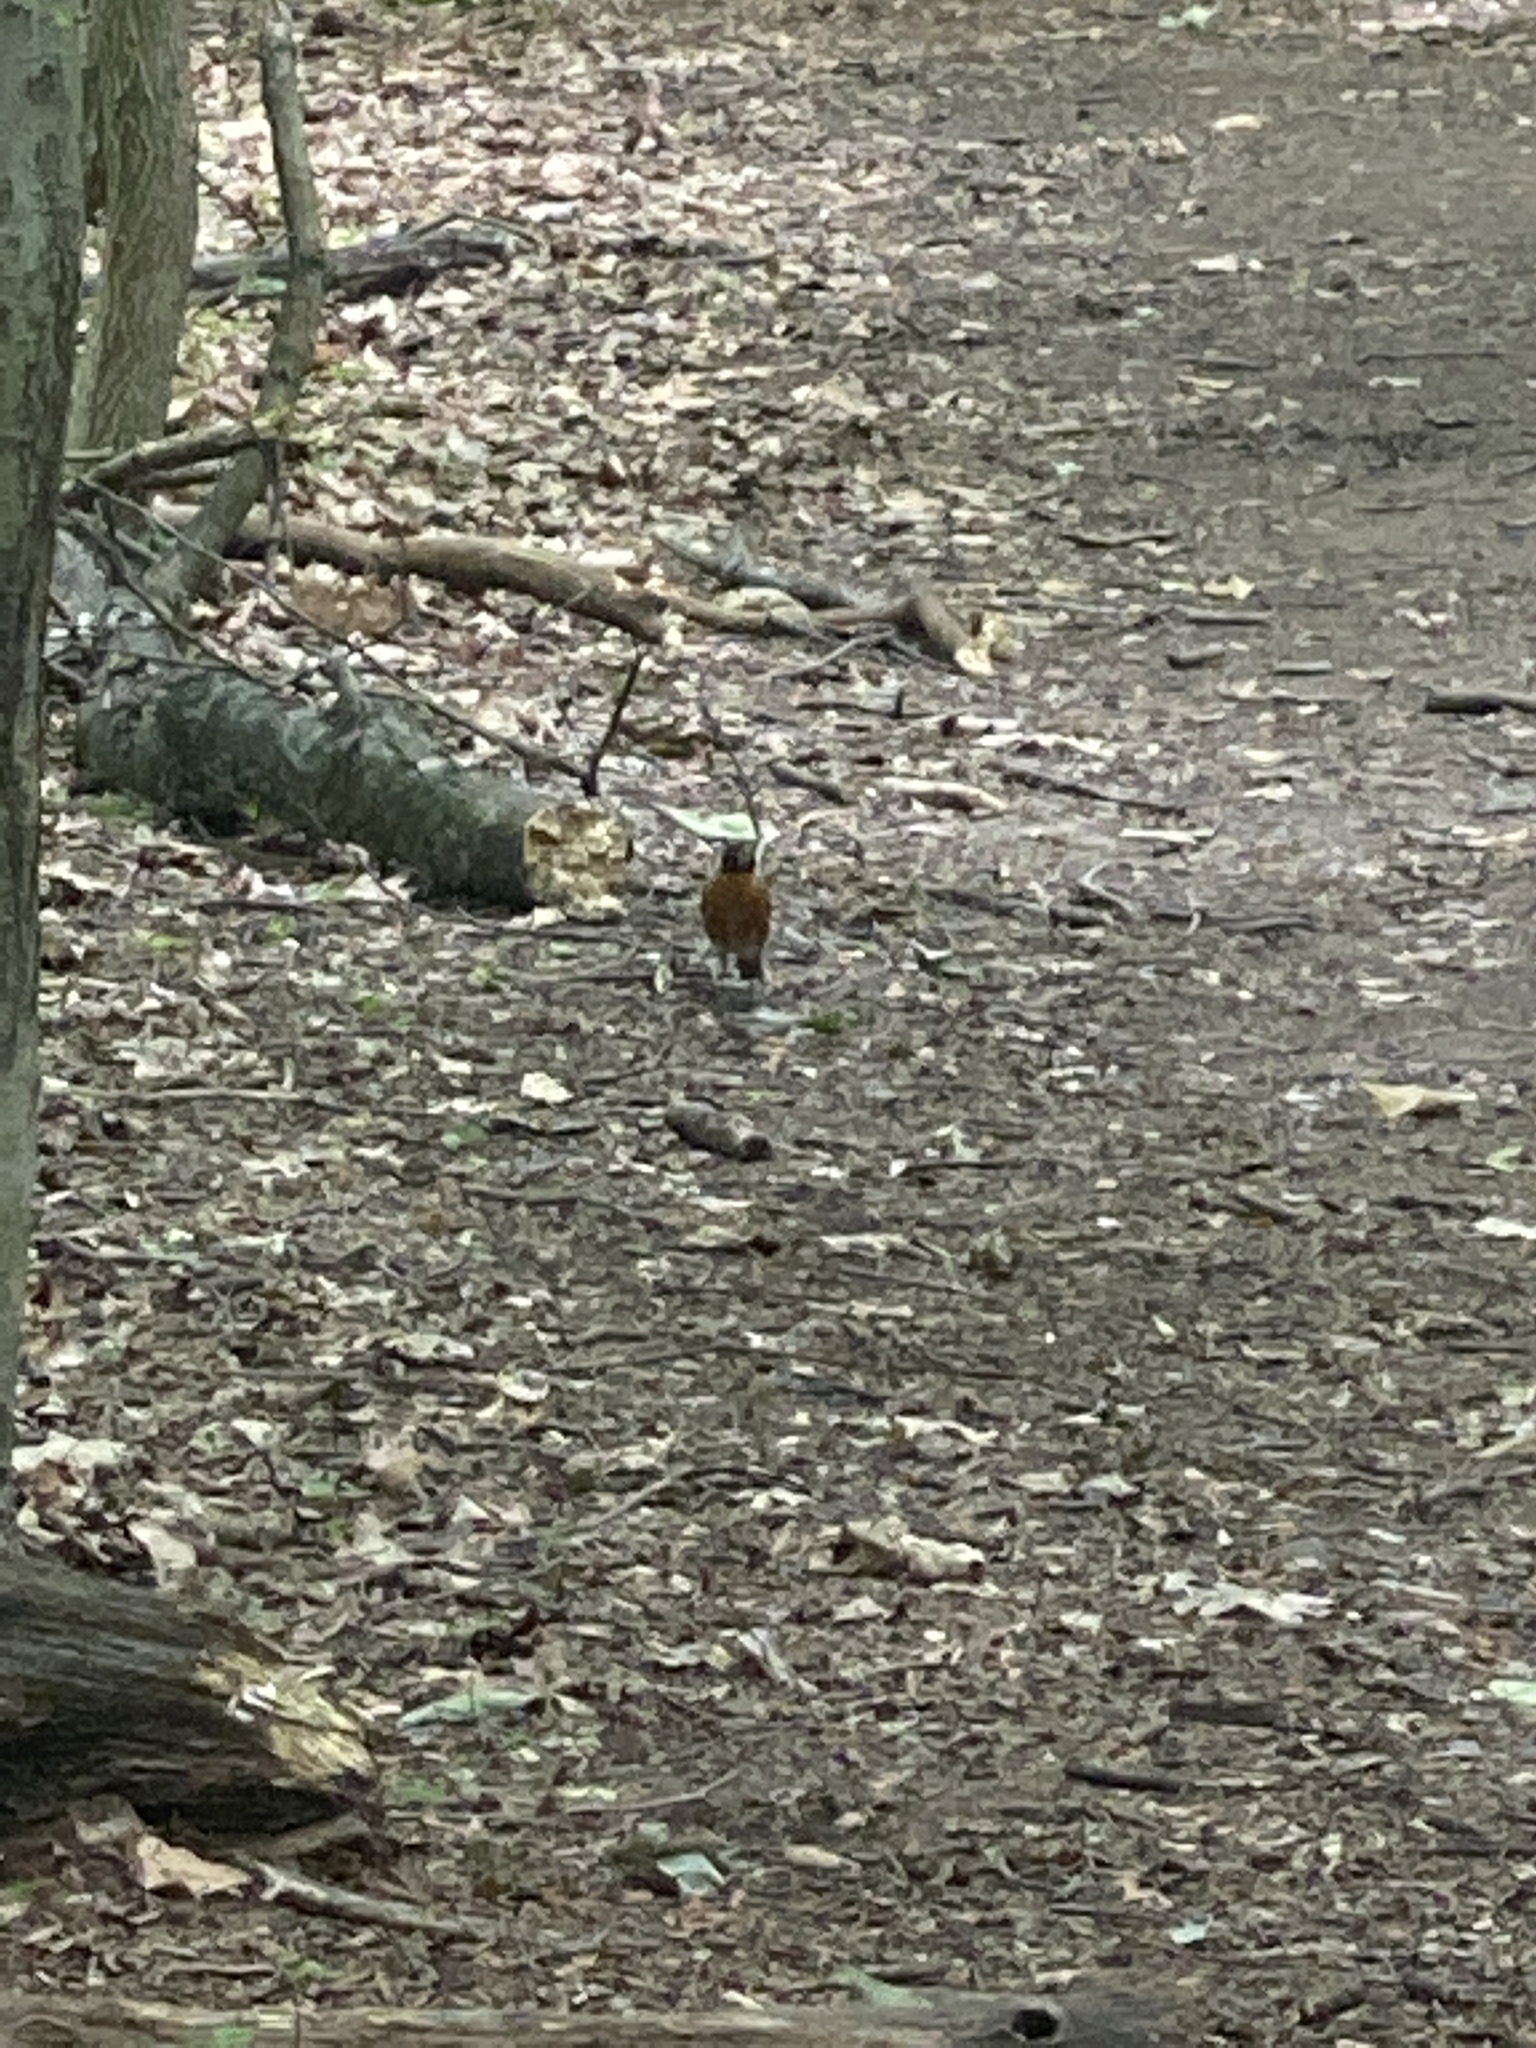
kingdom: Animalia
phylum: Chordata
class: Aves
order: Passeriformes
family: Turdidae
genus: Turdus
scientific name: Turdus migratorius
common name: American robin
